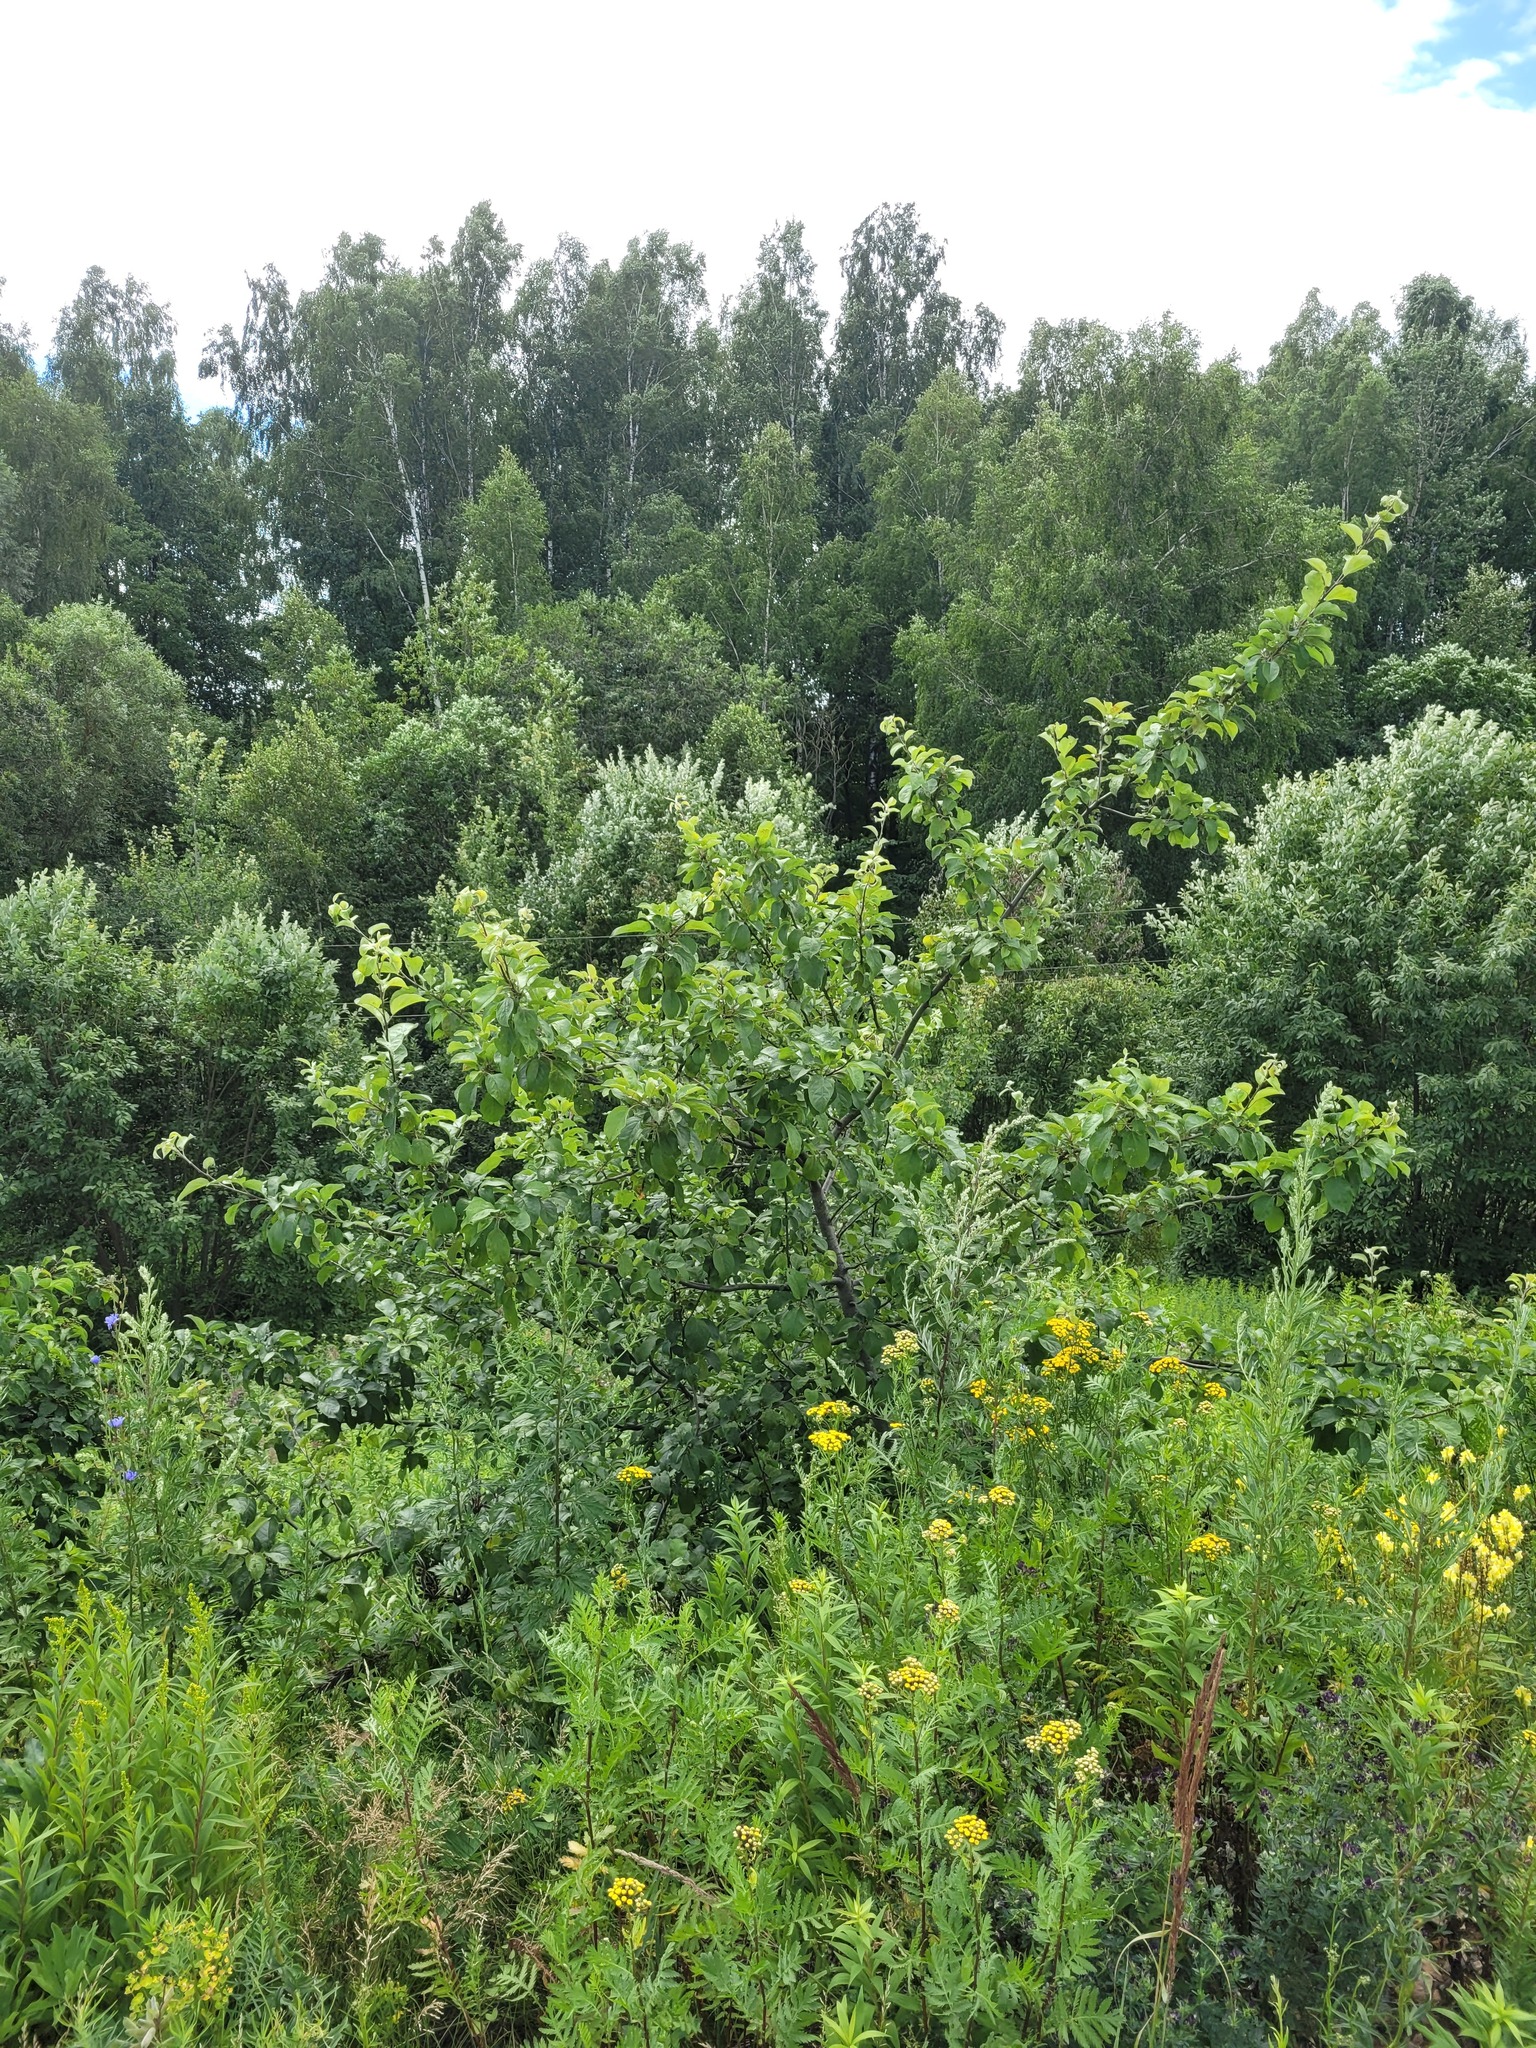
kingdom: Plantae
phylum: Tracheophyta
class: Magnoliopsida
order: Rosales
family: Rosaceae
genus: Malus
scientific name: Malus domestica
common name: Apple
